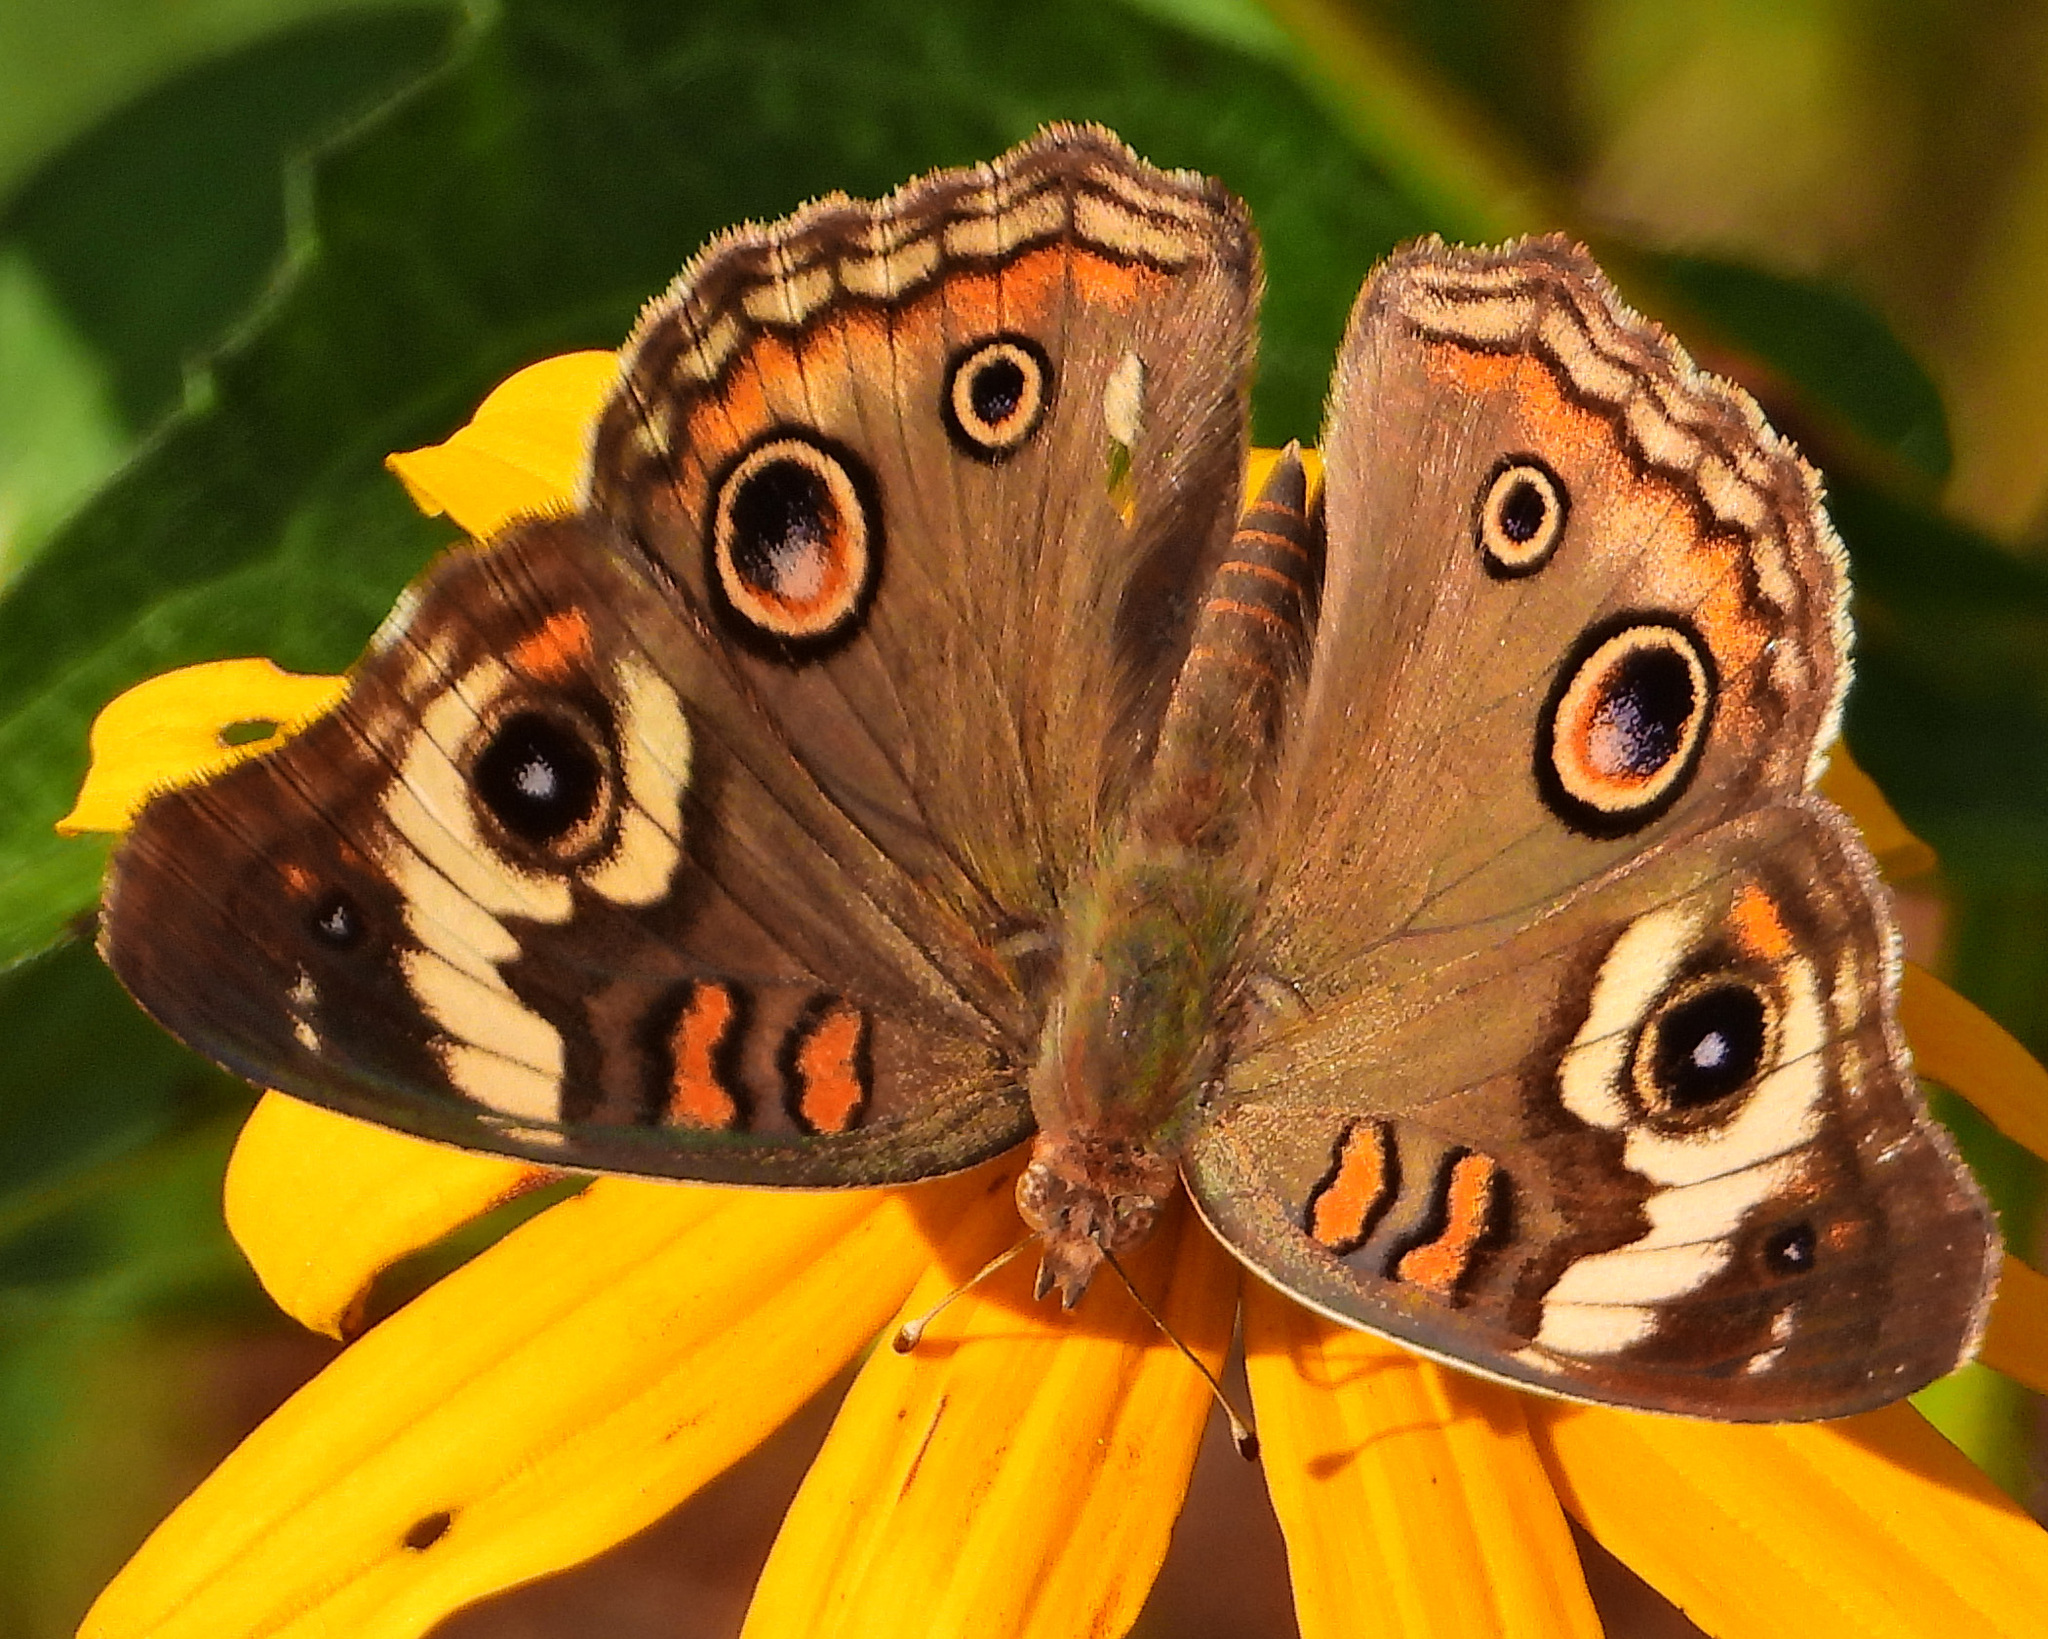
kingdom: Animalia
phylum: Arthropoda
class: Insecta
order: Lepidoptera
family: Nymphalidae
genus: Junonia
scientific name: Junonia coenia
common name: Common buckeye
